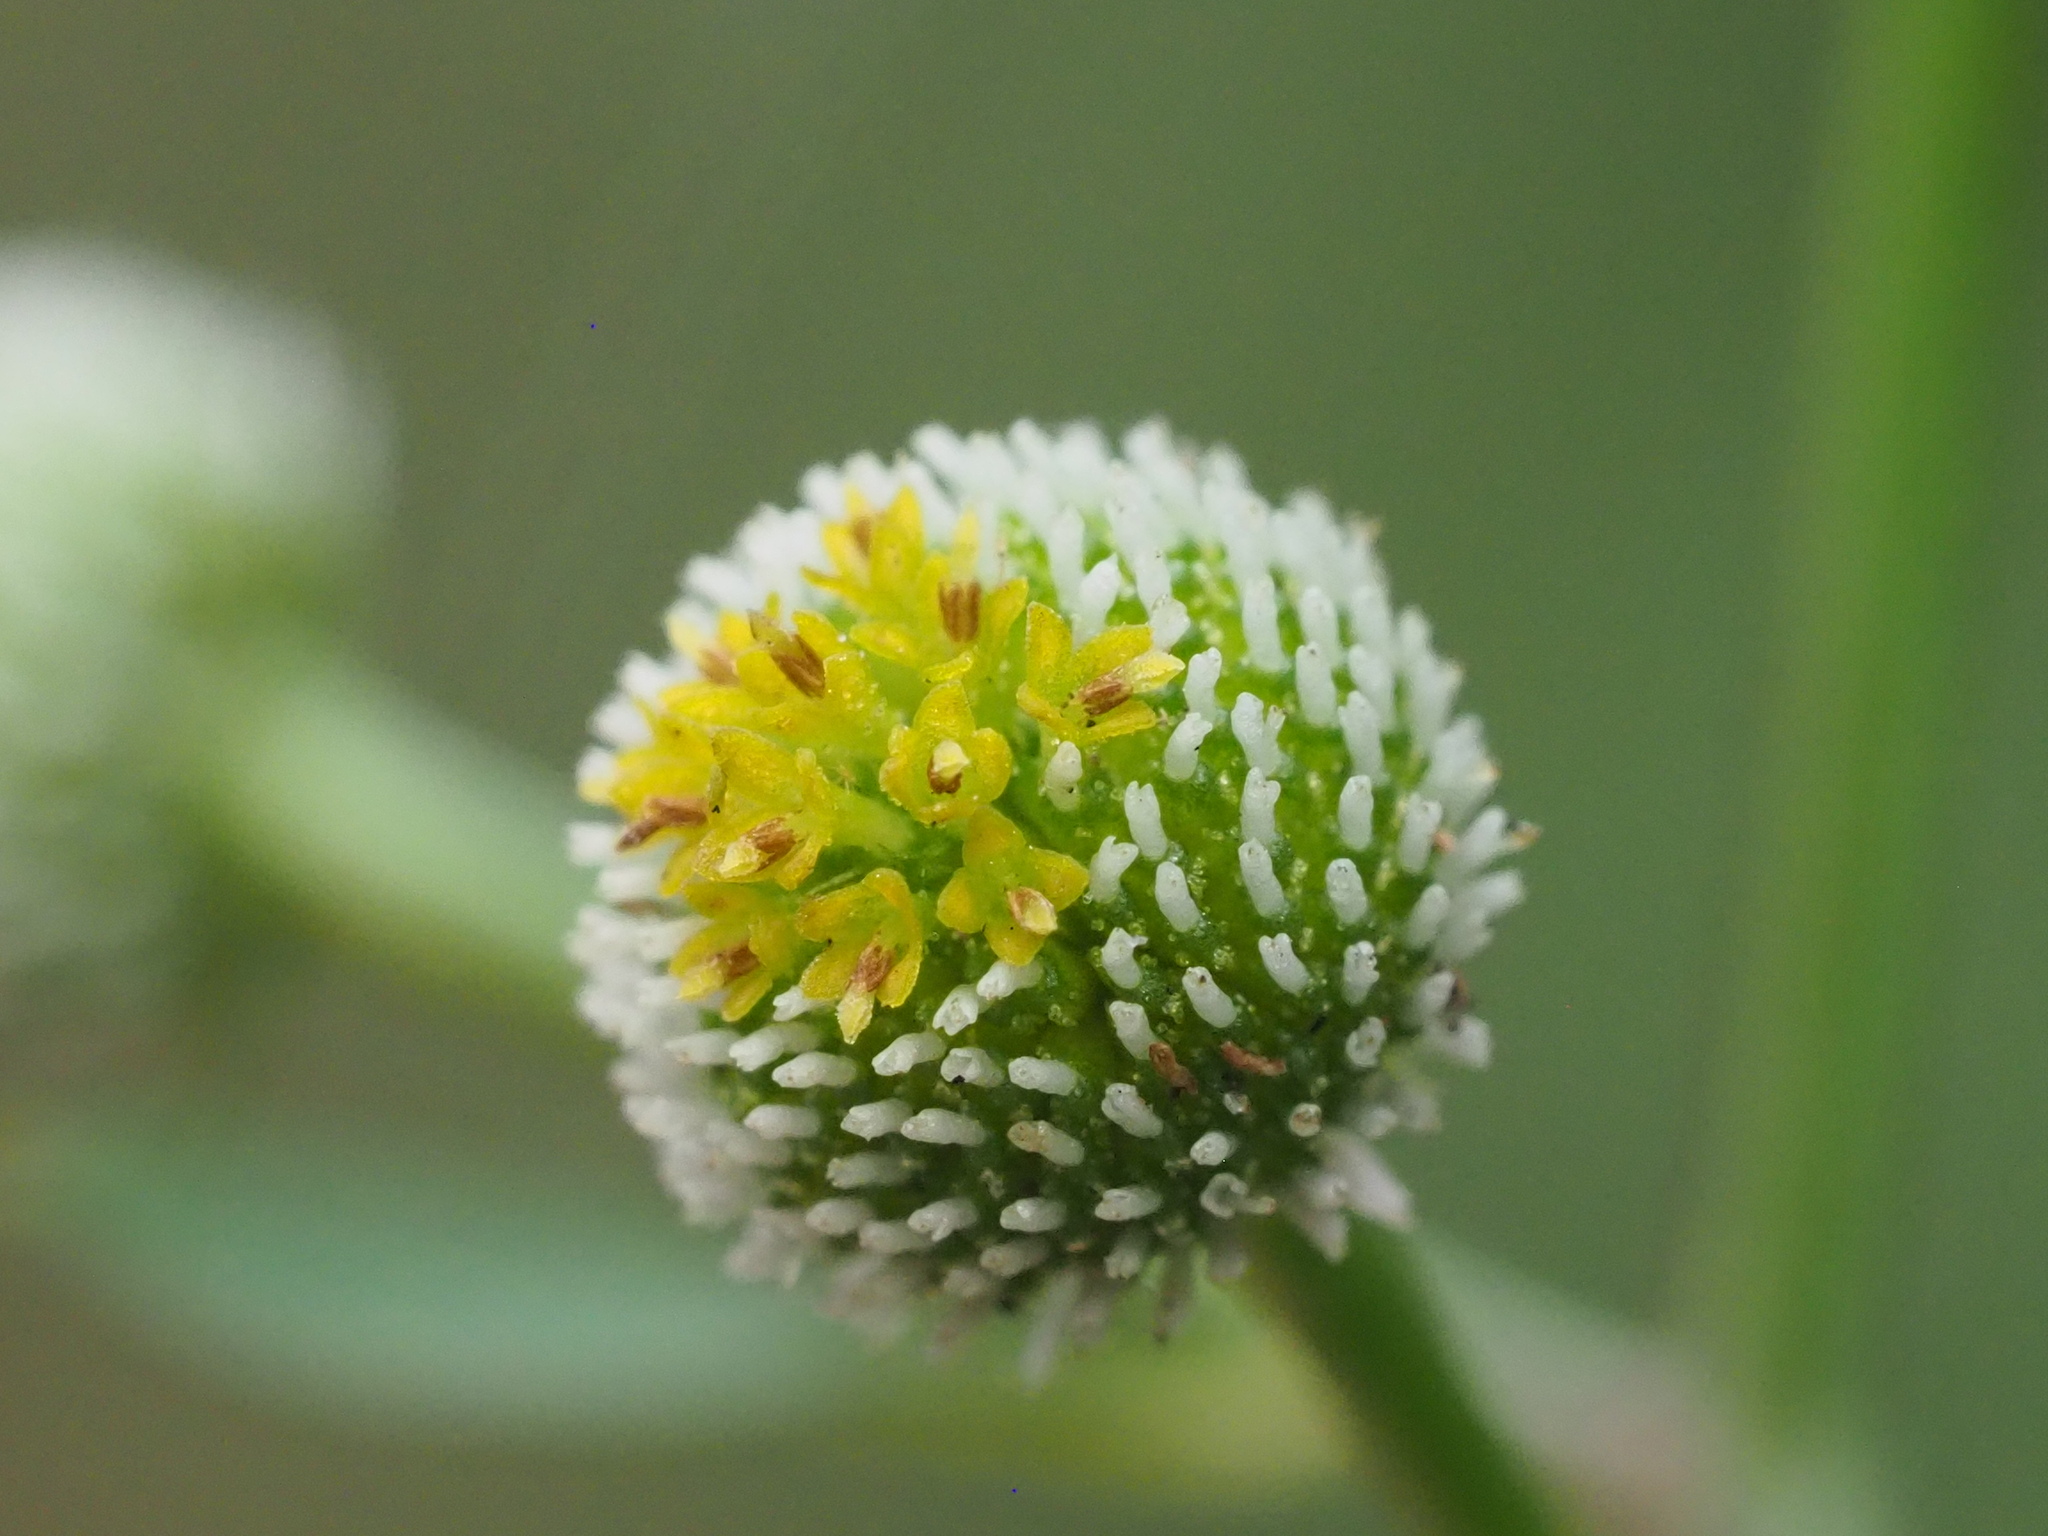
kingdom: Plantae
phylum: Tracheophyta
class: Magnoliopsida
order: Asterales
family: Asteraceae
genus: Dichrocephala
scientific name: Dichrocephala integrifolia
